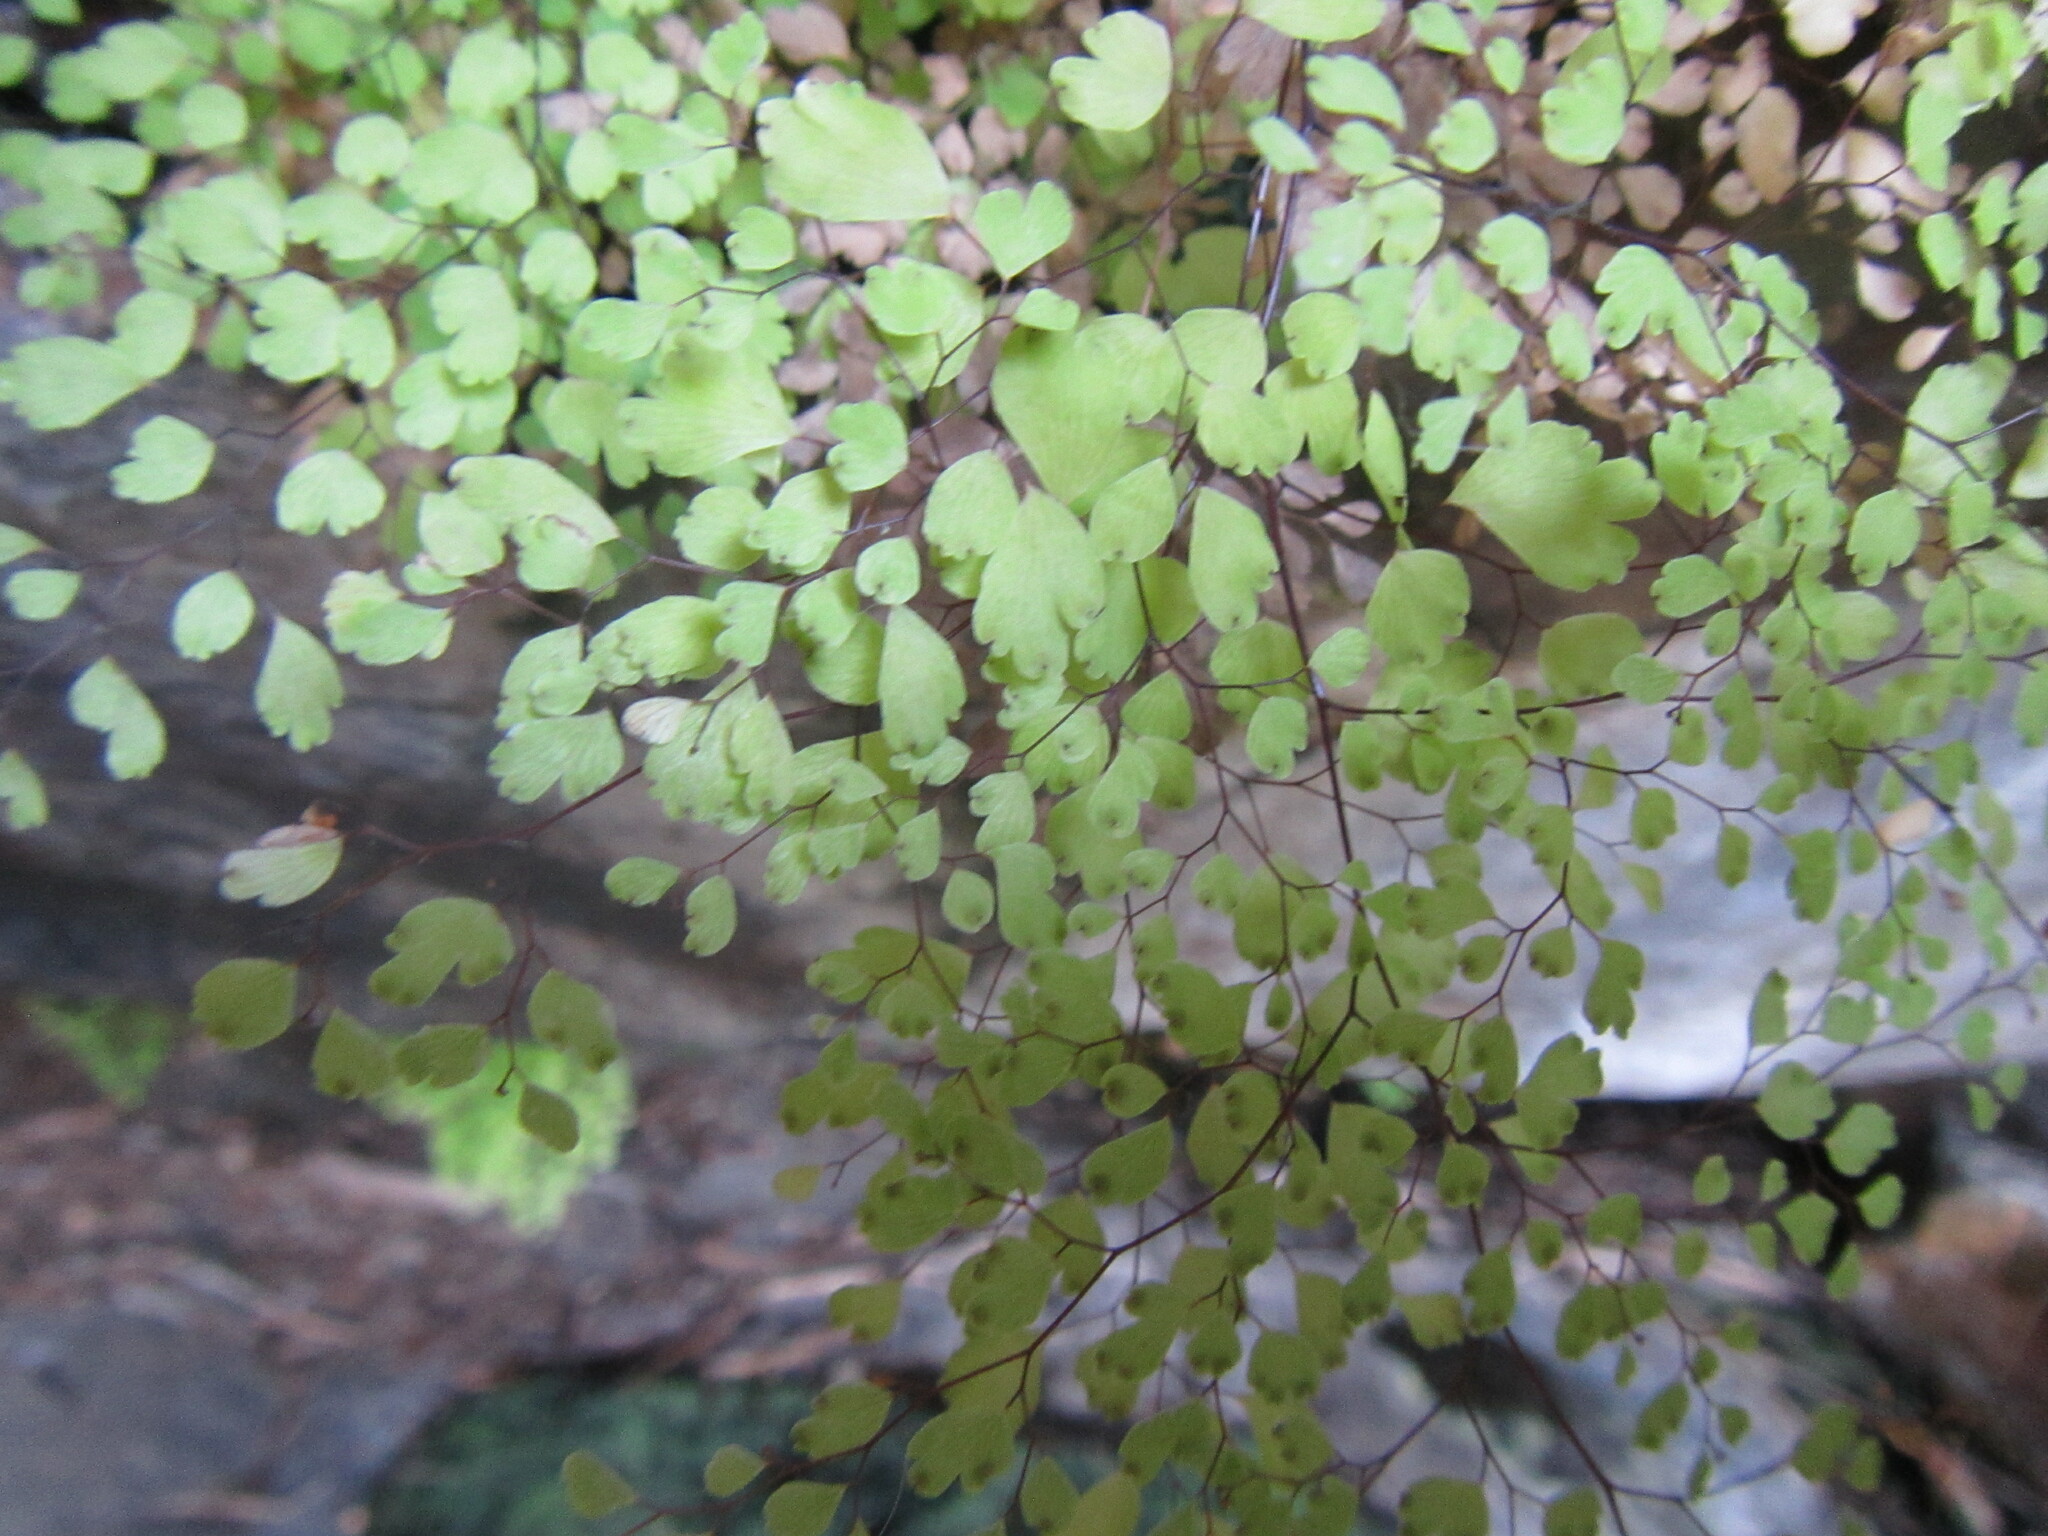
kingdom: Plantae
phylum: Tracheophyta
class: Polypodiopsida
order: Polypodiales
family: Pteridaceae
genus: Adiantum
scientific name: Adiantum aethiopicum
